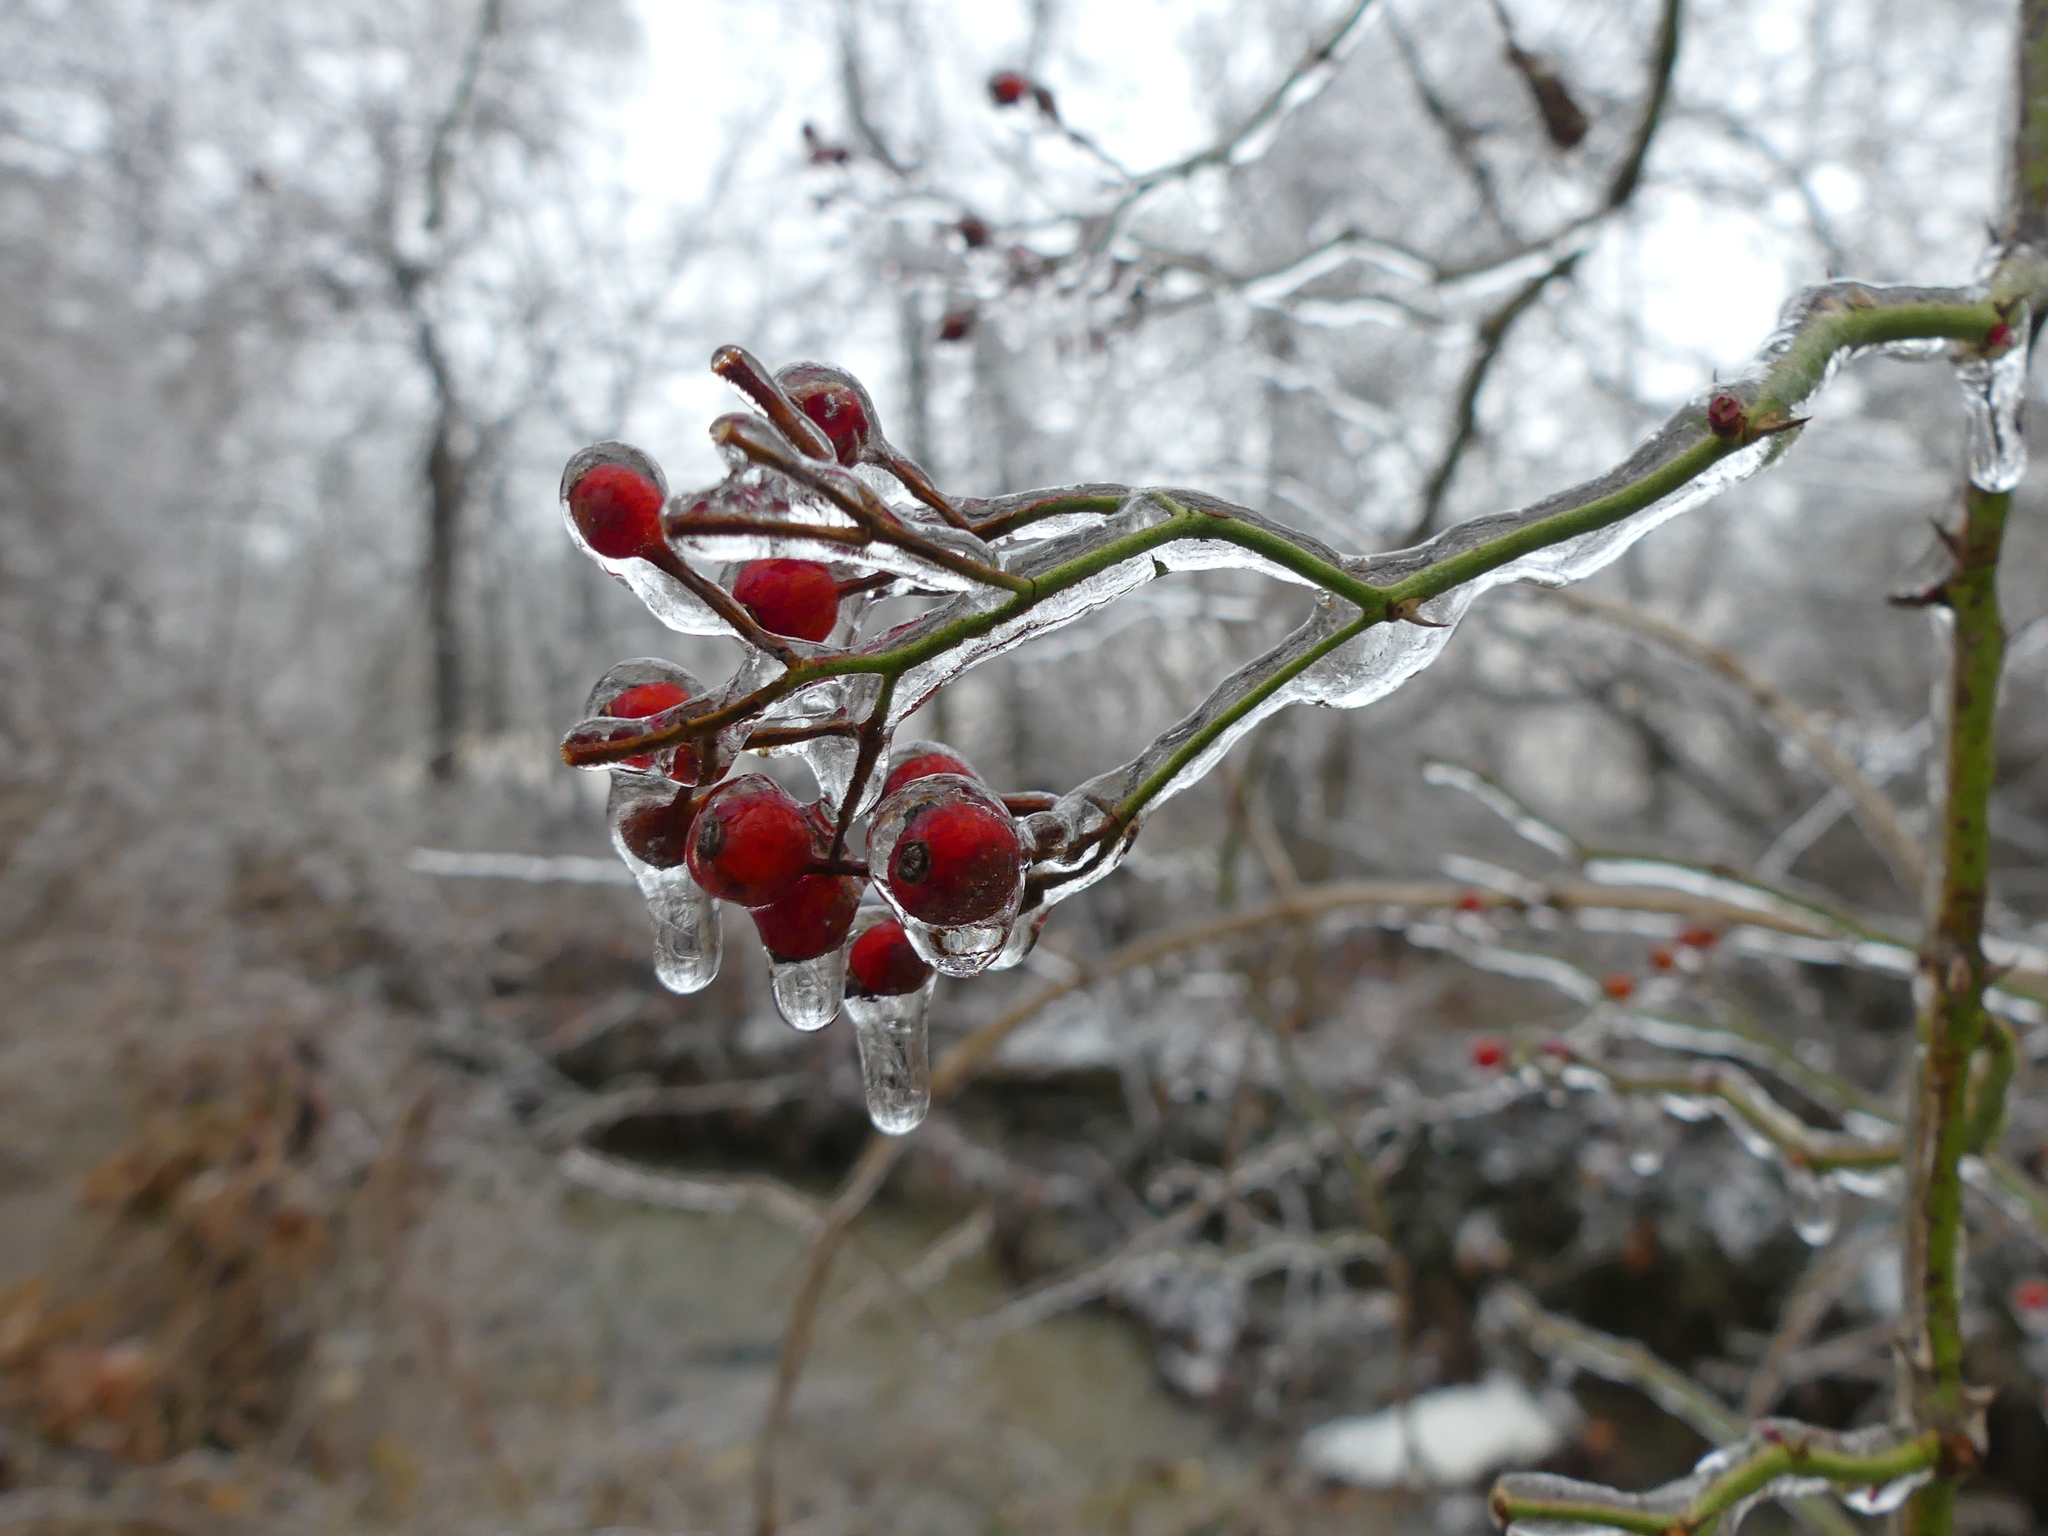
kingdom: Plantae
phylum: Tracheophyta
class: Magnoliopsida
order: Rosales
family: Rosaceae
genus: Rosa
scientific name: Rosa multiflora
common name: Multiflora rose
